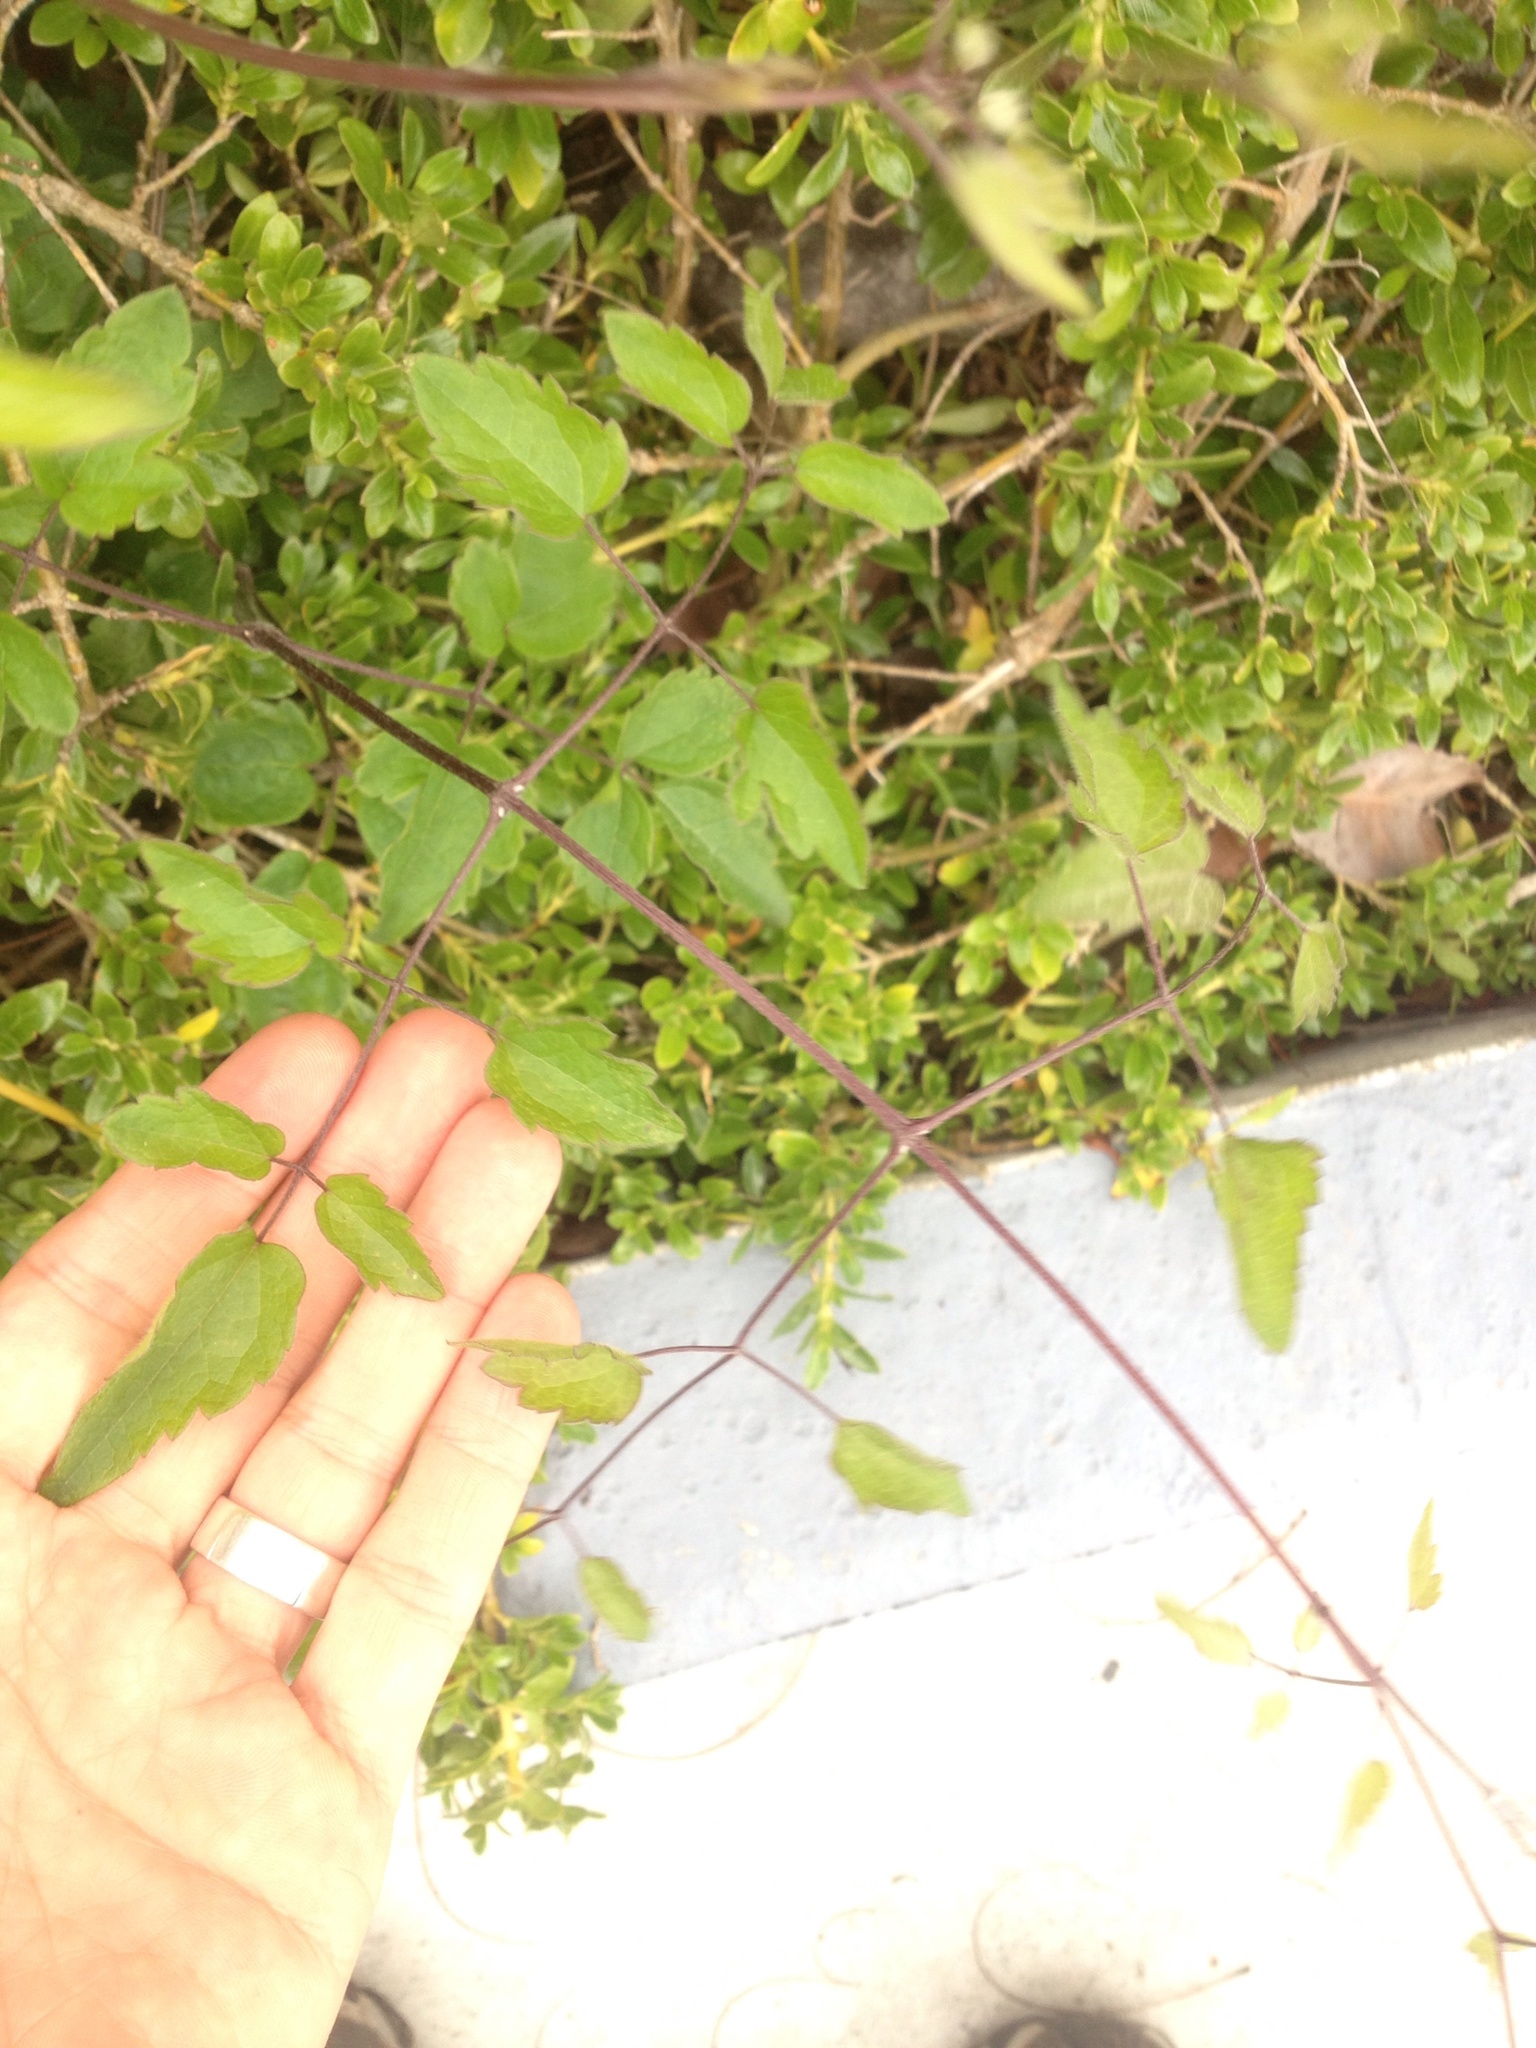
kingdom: Plantae
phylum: Tracheophyta
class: Magnoliopsida
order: Ranunculales
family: Ranunculaceae
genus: Clematis
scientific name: Clematis vitalba
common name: Evergreen clematis
